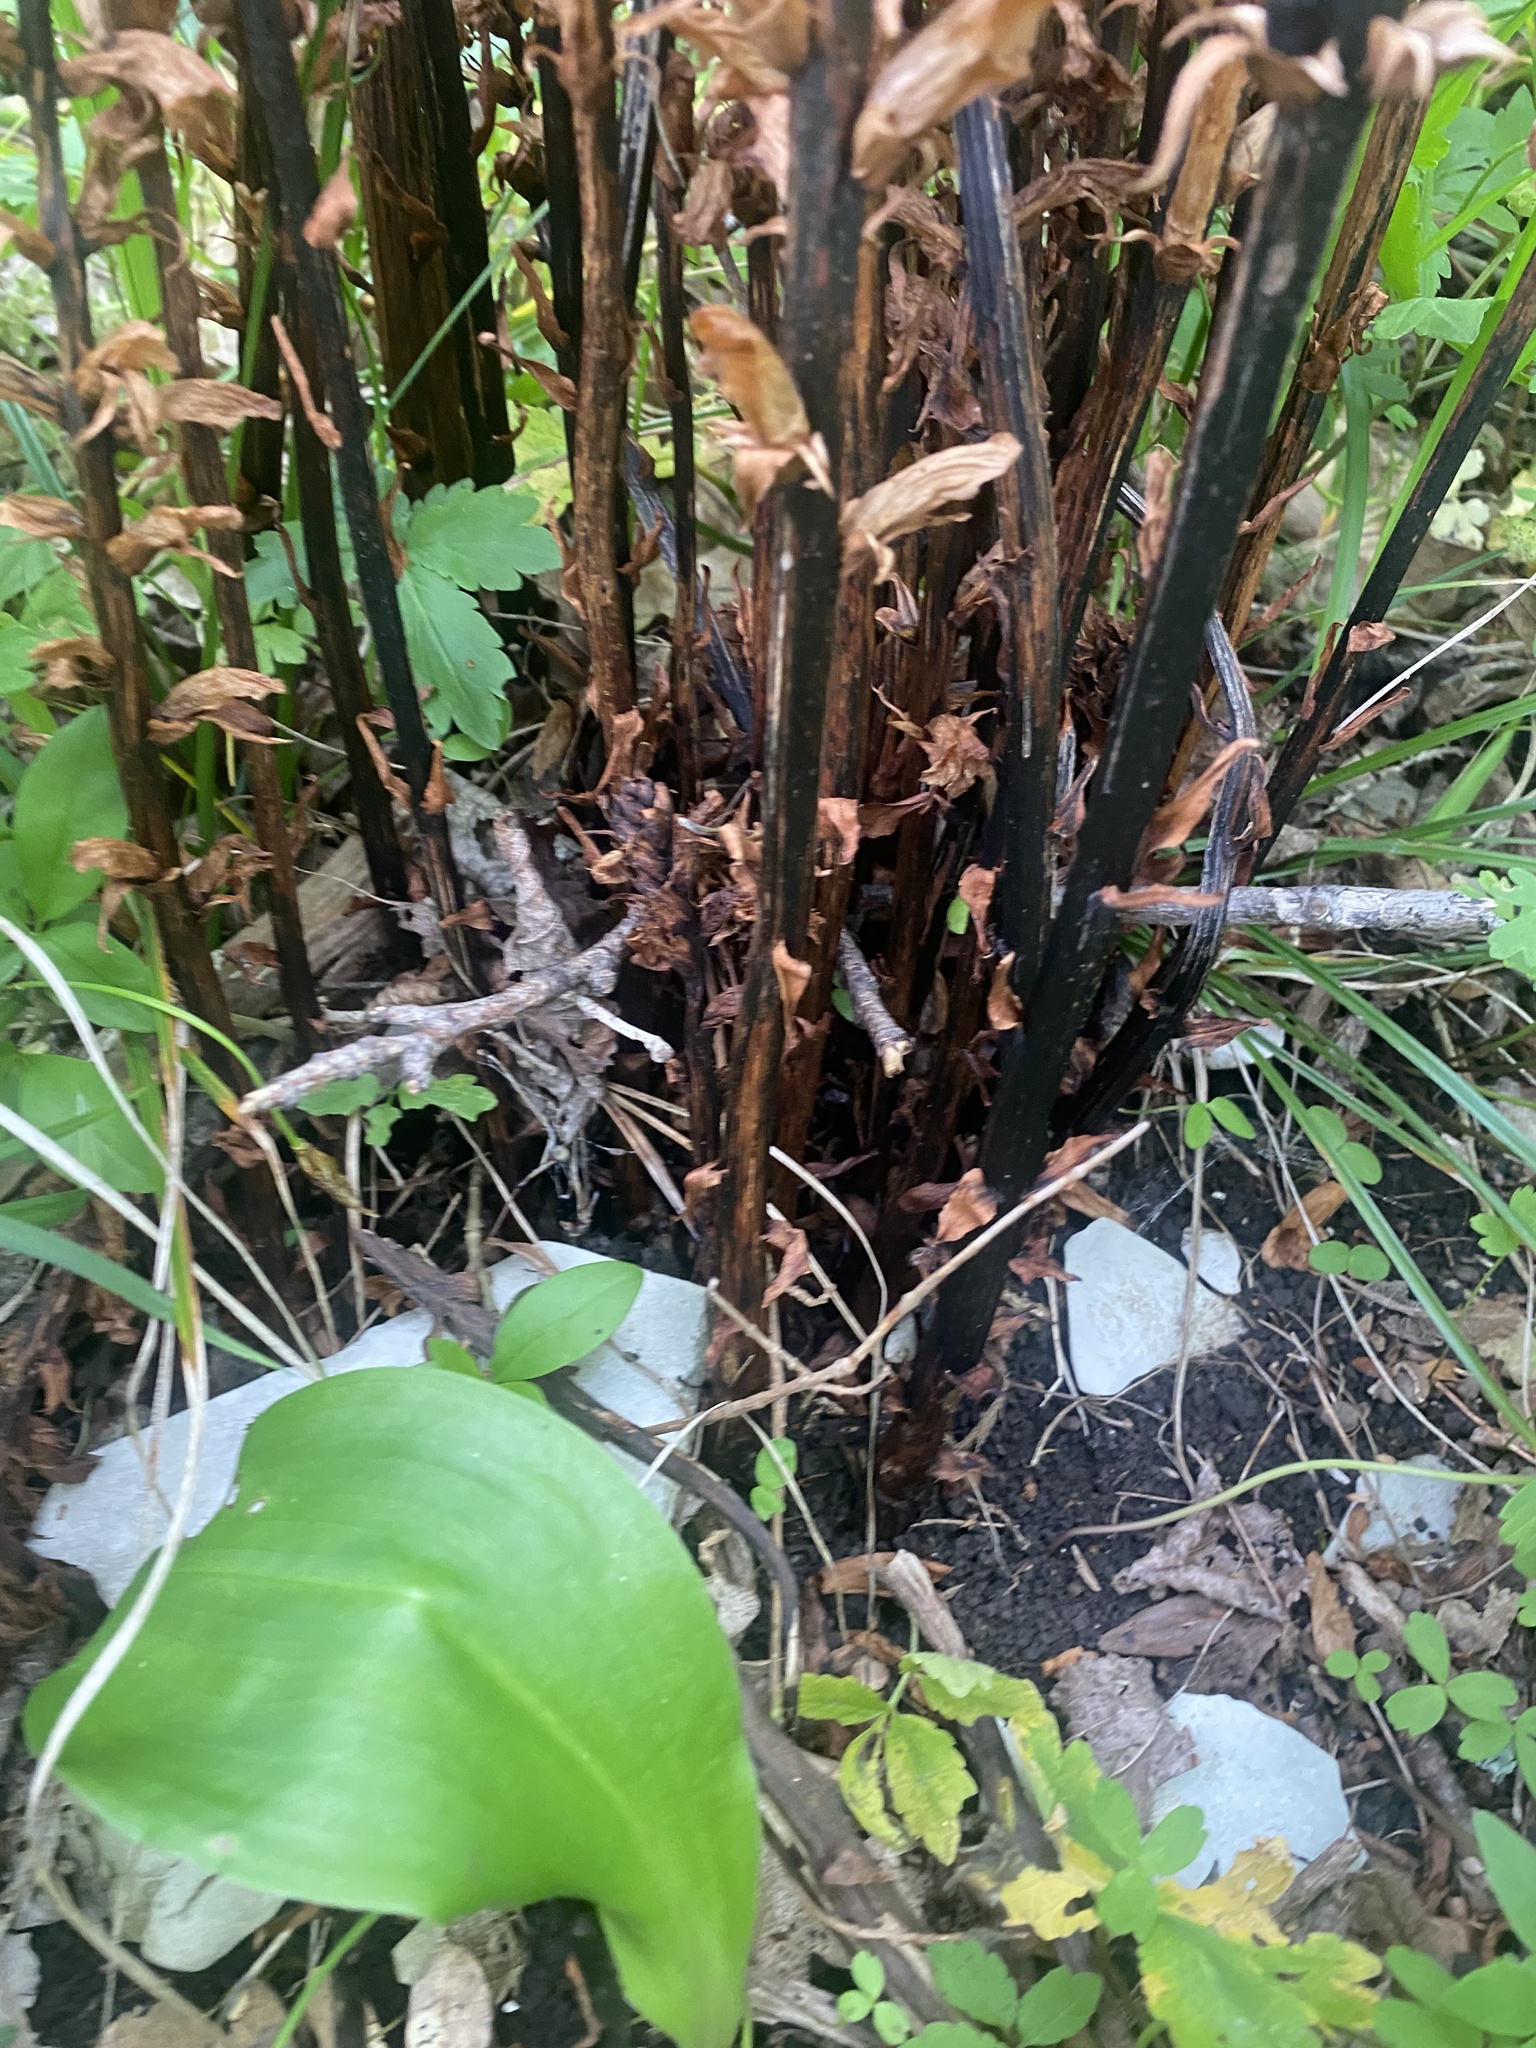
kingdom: Plantae
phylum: Tracheophyta
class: Magnoliopsida
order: Lamiales
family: Orobanchaceae
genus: Orobanche
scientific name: Orobanche laxissima
